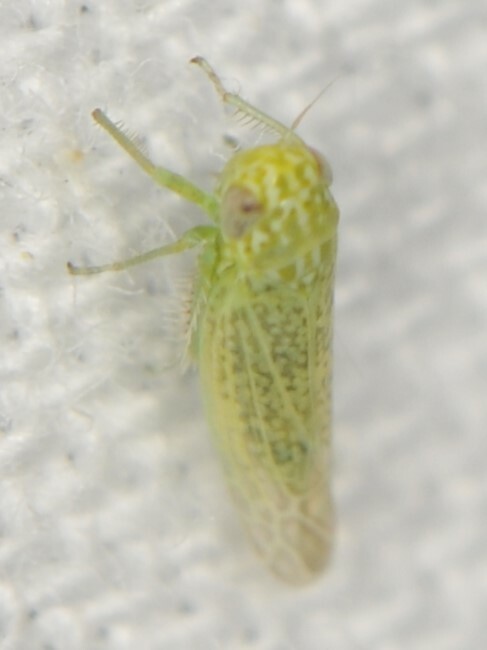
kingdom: Animalia
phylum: Arthropoda
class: Insecta
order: Hemiptera
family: Cicadellidae
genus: Hebata
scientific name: Hebata
